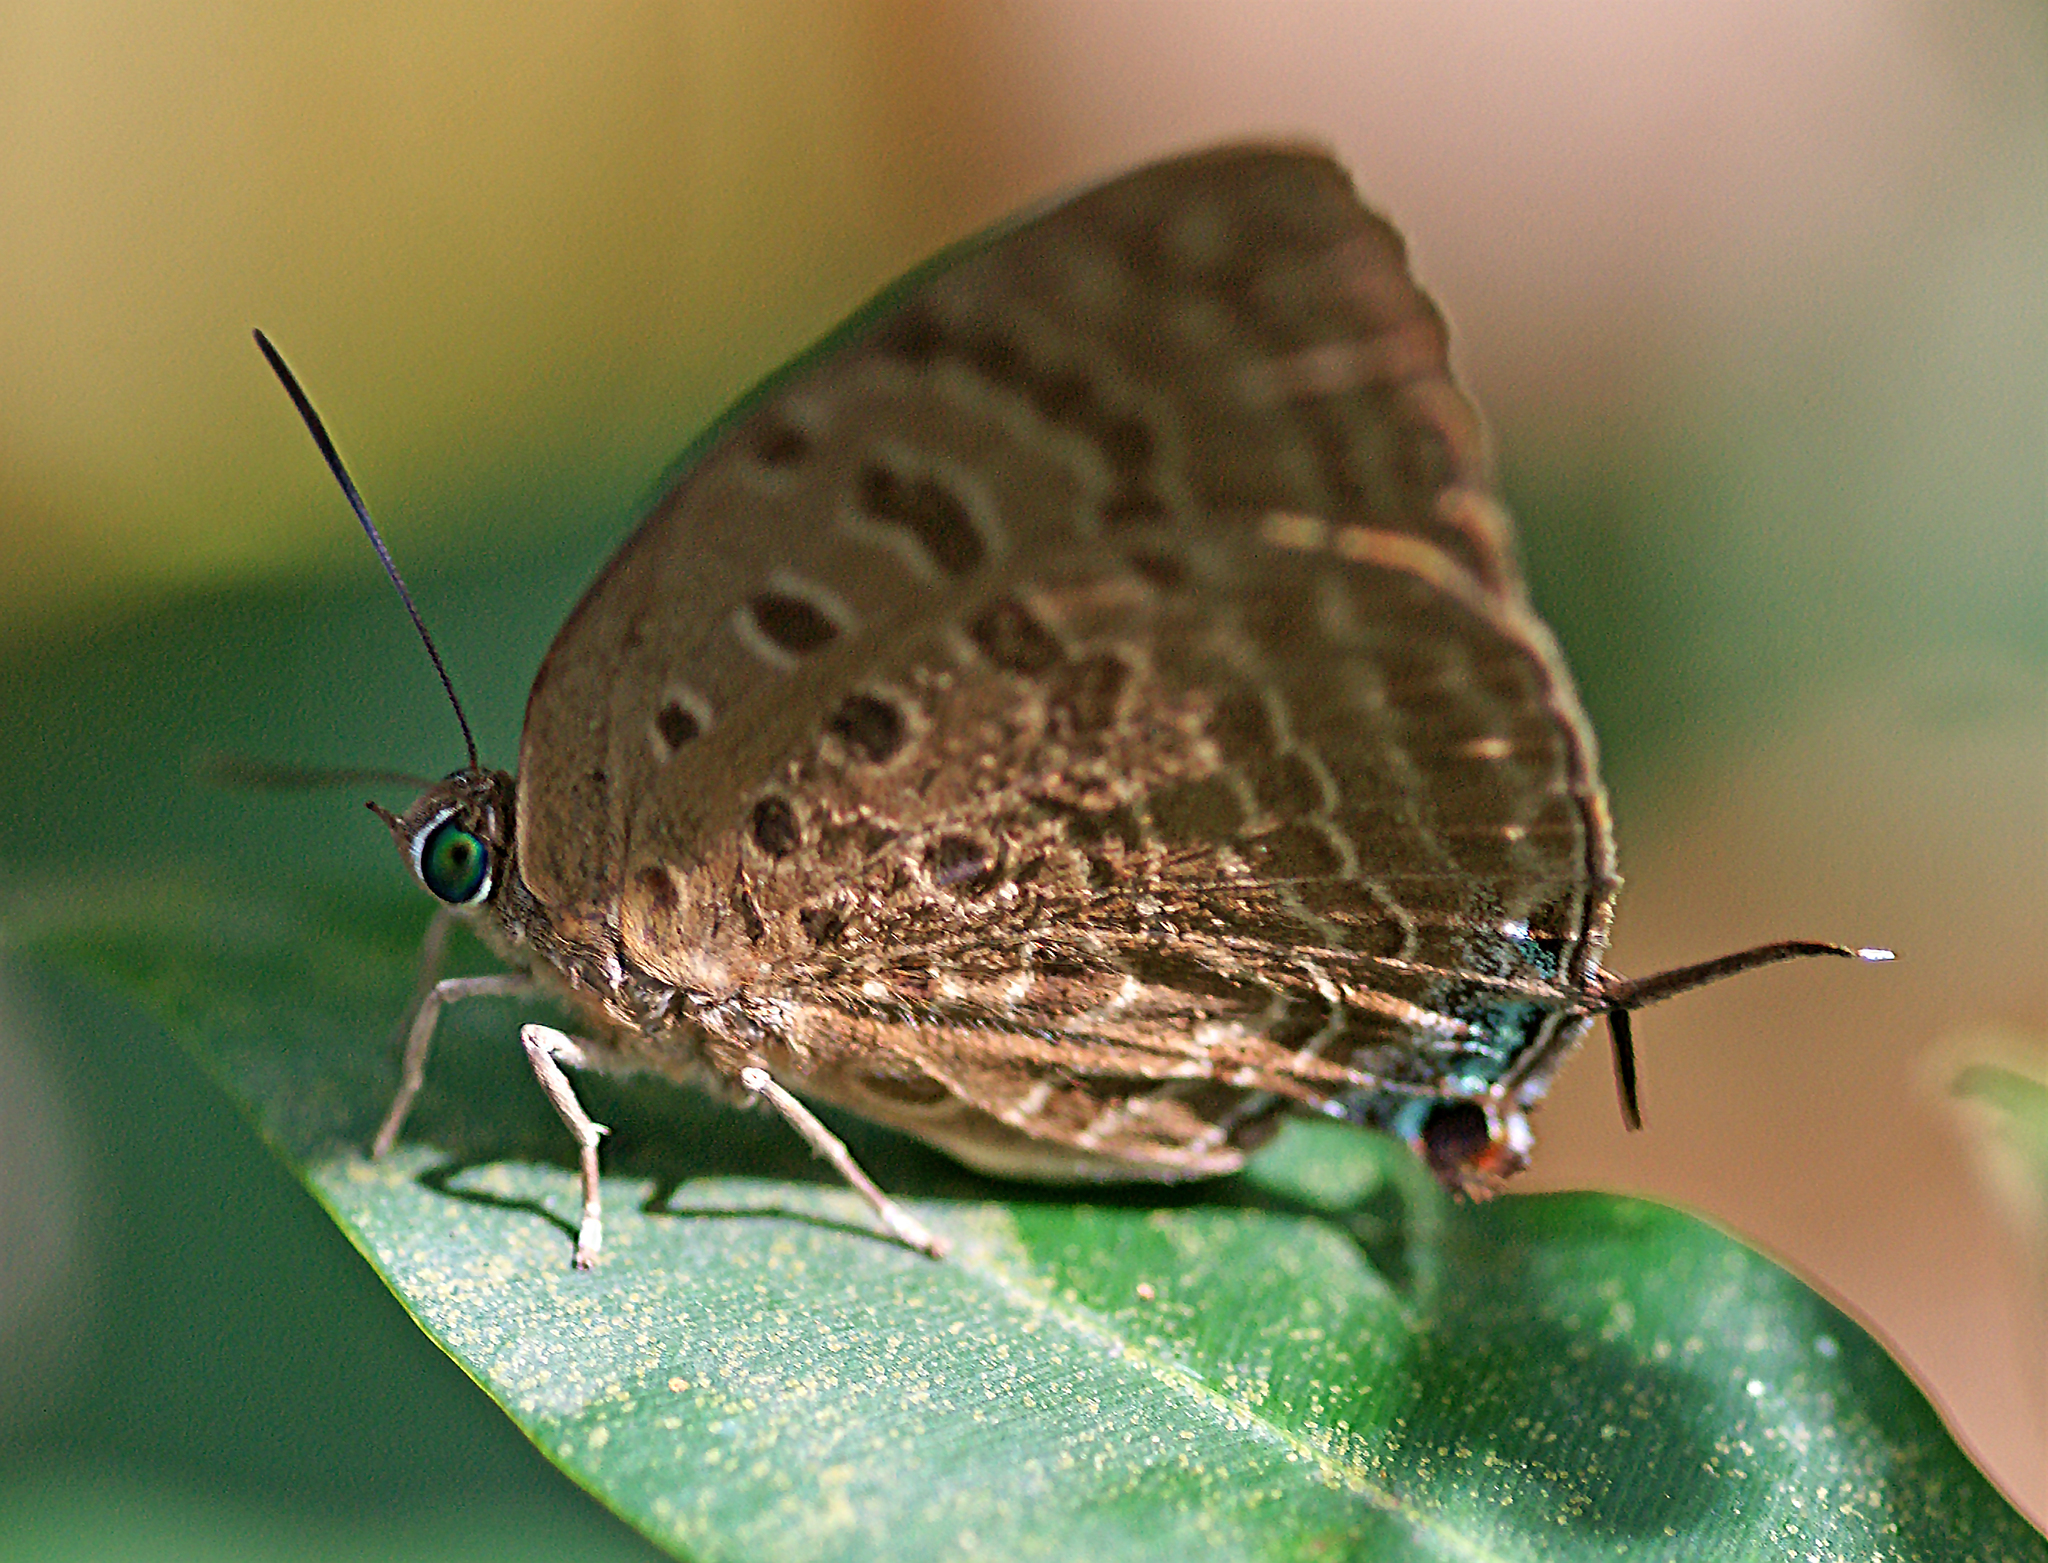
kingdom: Animalia
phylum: Arthropoda
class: Insecta
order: Lepidoptera
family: Lycaenidae
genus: Arhopala
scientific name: Arhopala
